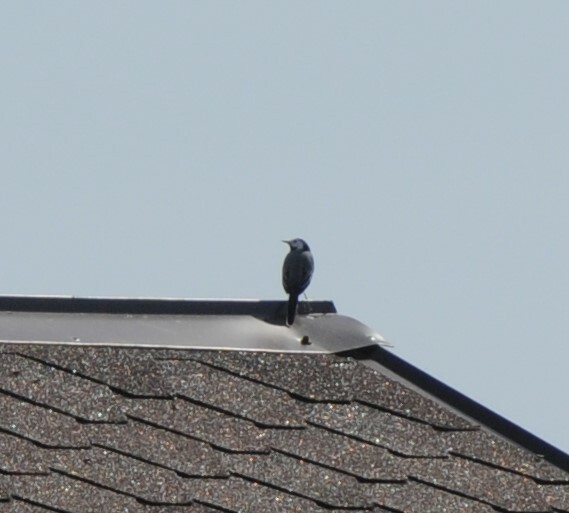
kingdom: Animalia
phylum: Chordata
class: Aves
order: Passeriformes
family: Motacillidae
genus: Motacilla
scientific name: Motacilla alba
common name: White wagtail
